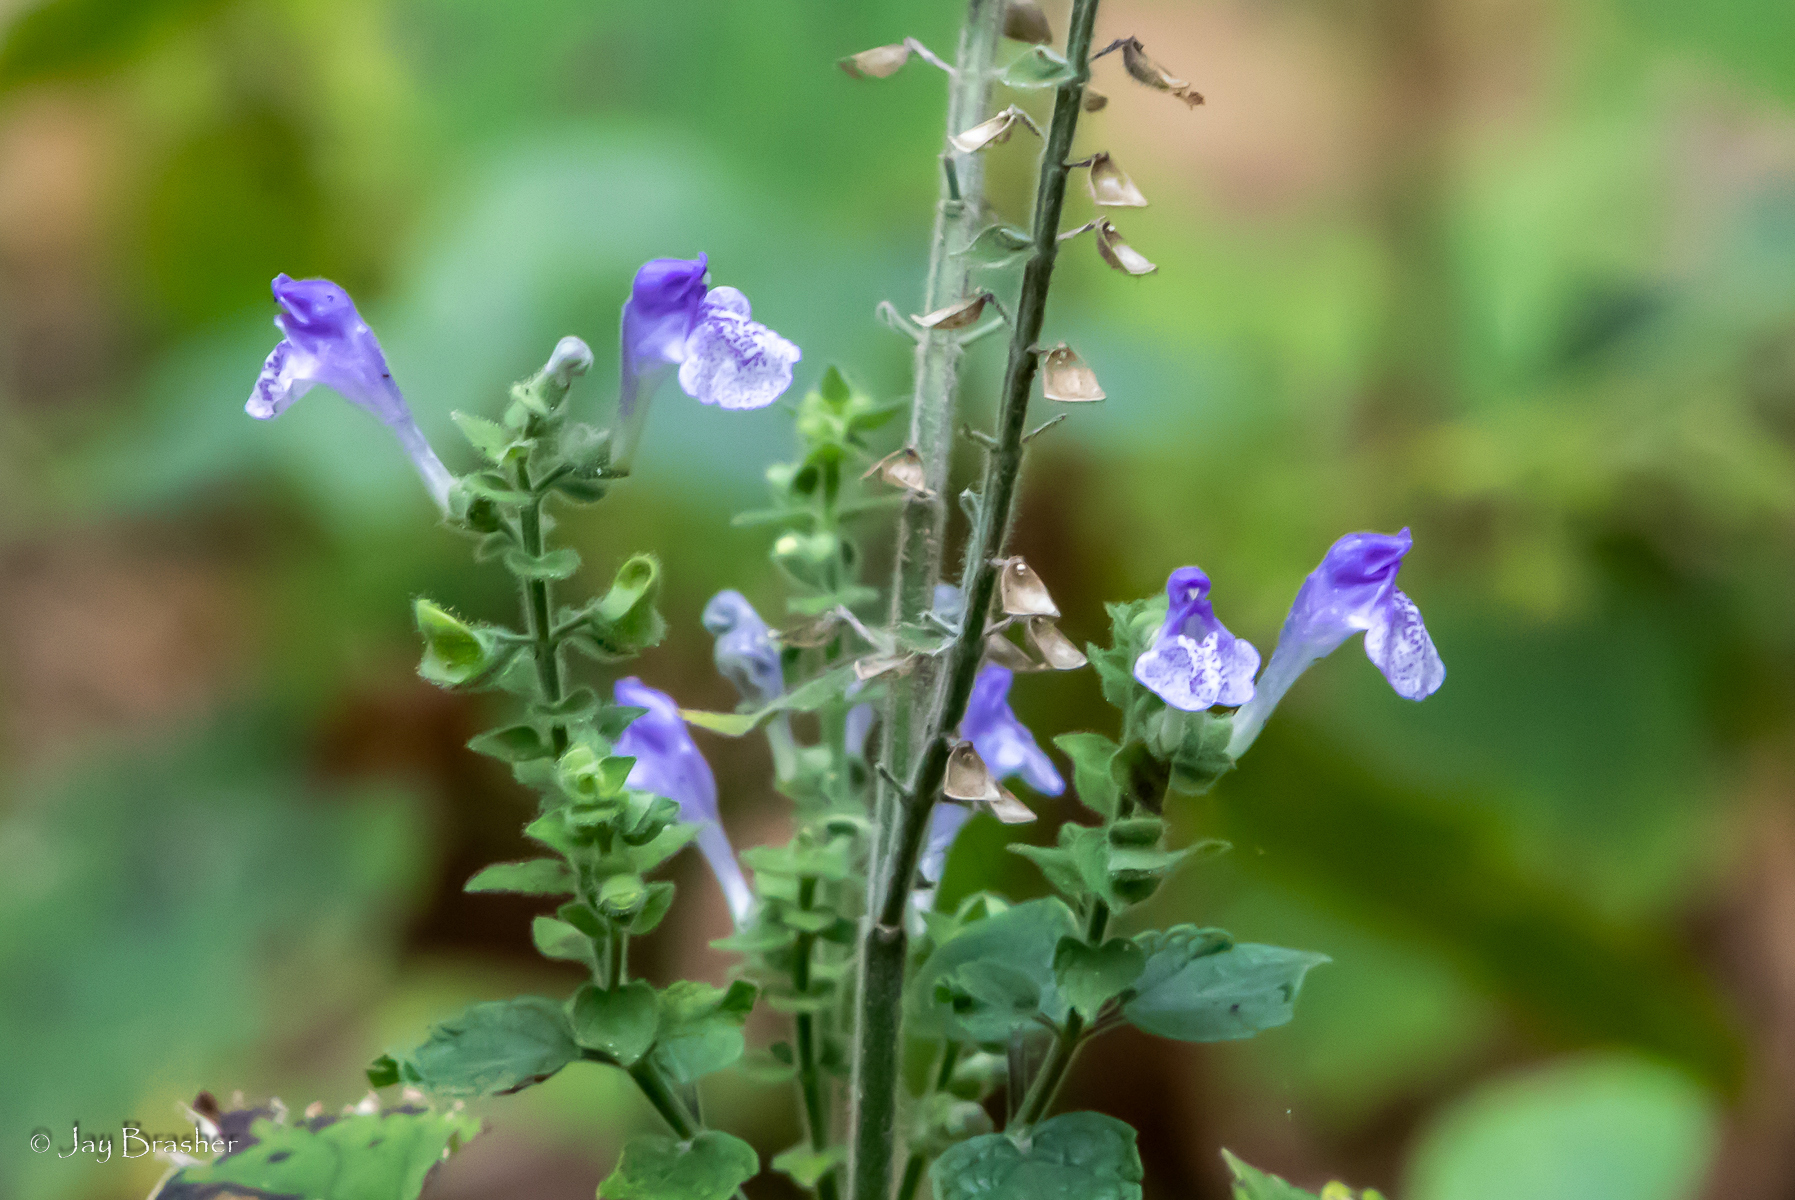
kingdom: Plantae
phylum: Tracheophyta
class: Magnoliopsida
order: Lamiales
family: Lamiaceae
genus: Scutellaria
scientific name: Scutellaria ovata
